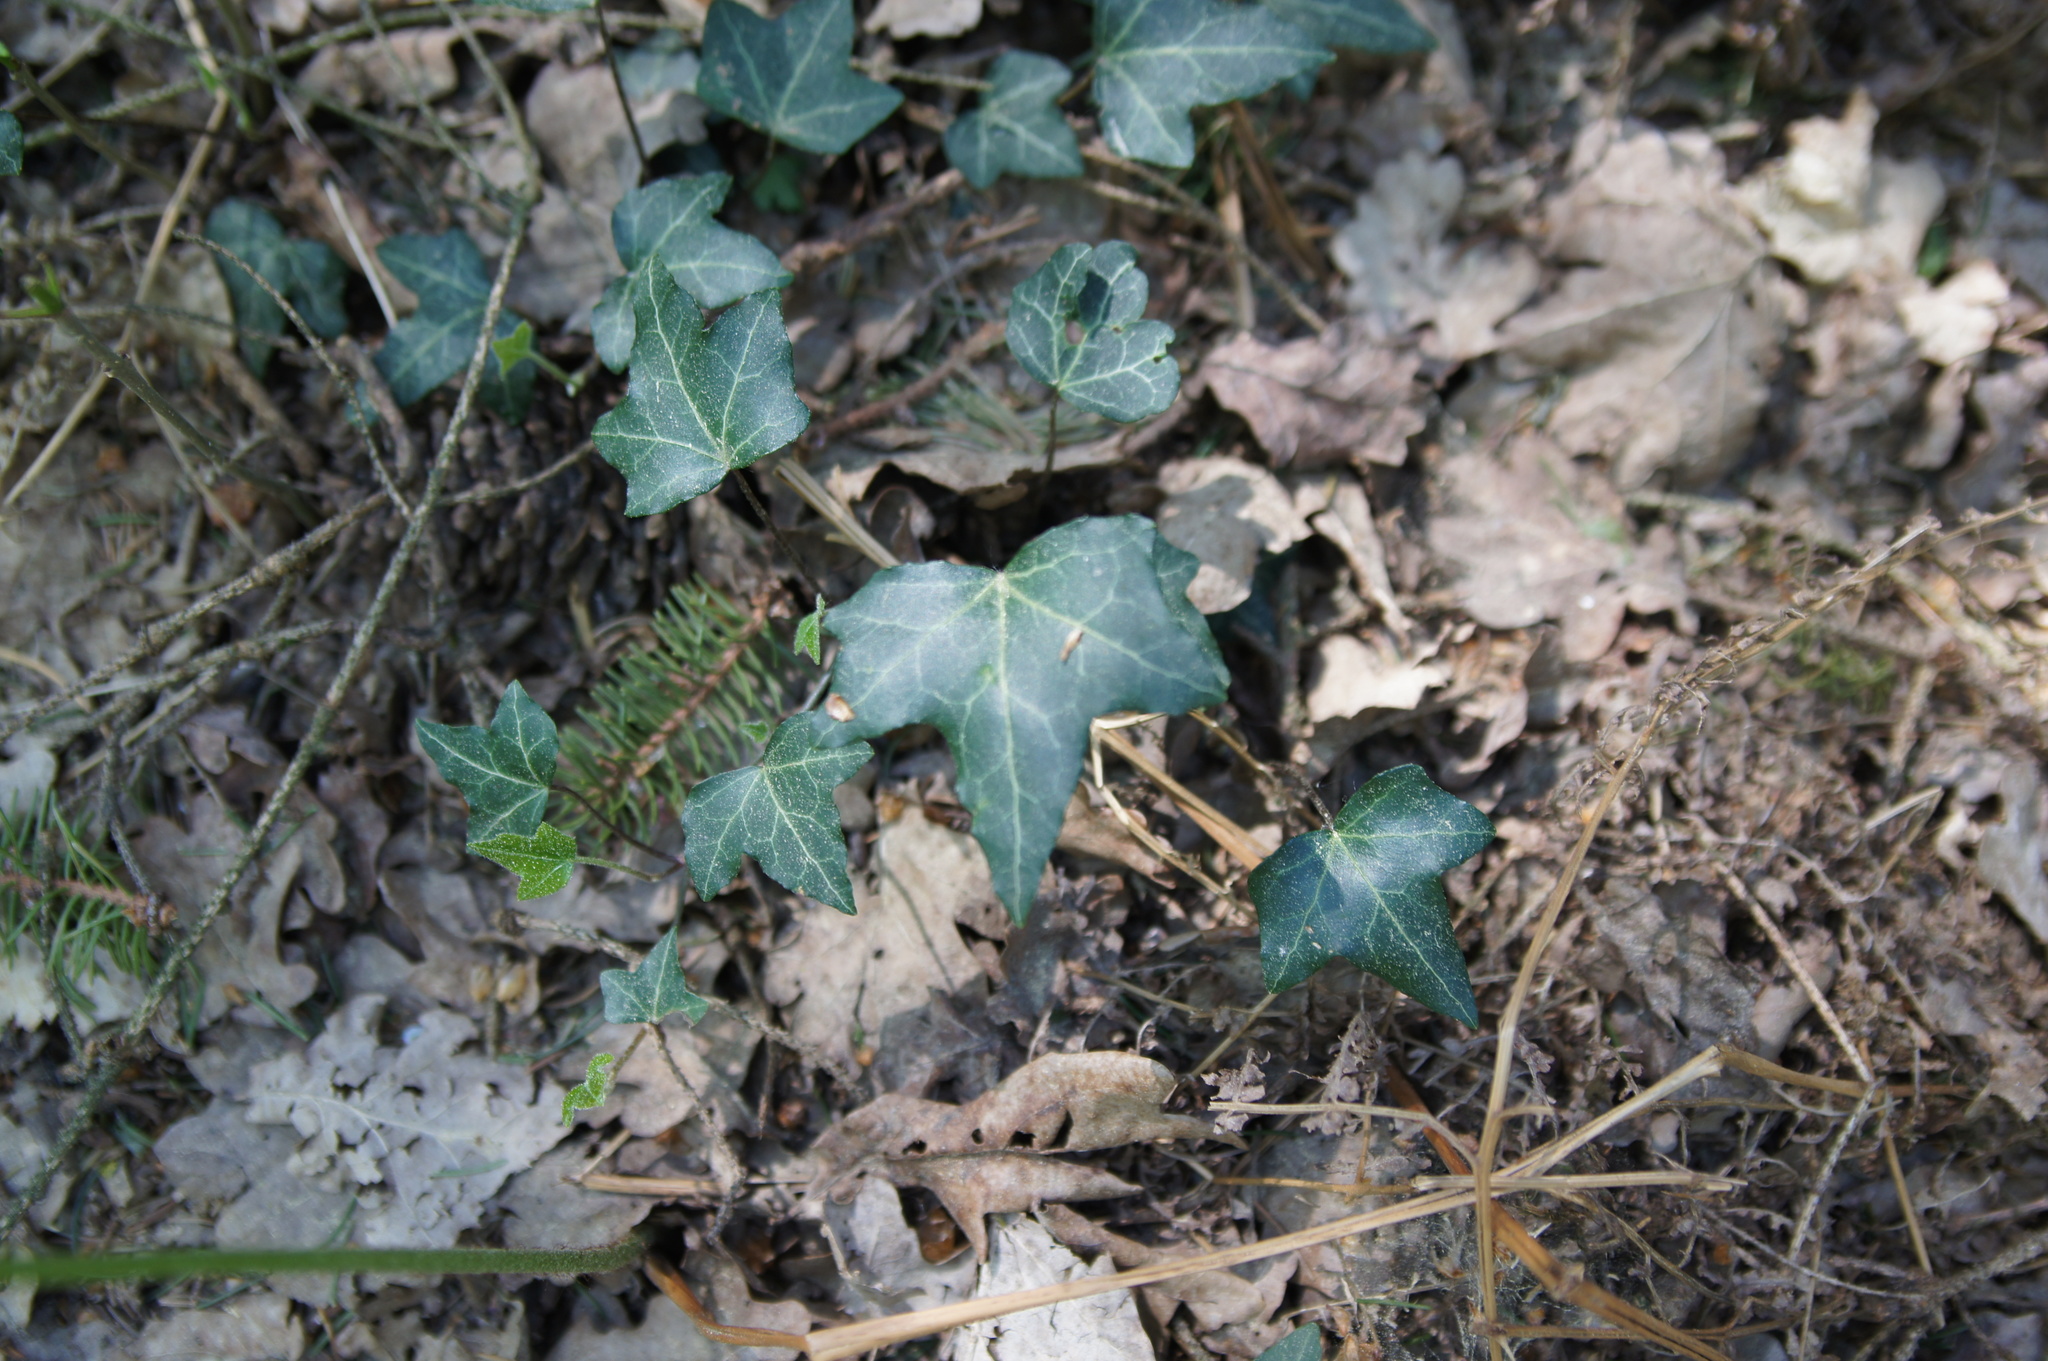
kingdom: Plantae
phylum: Tracheophyta
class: Magnoliopsida
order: Apiales
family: Araliaceae
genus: Hedera
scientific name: Hedera helix
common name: Ivy
